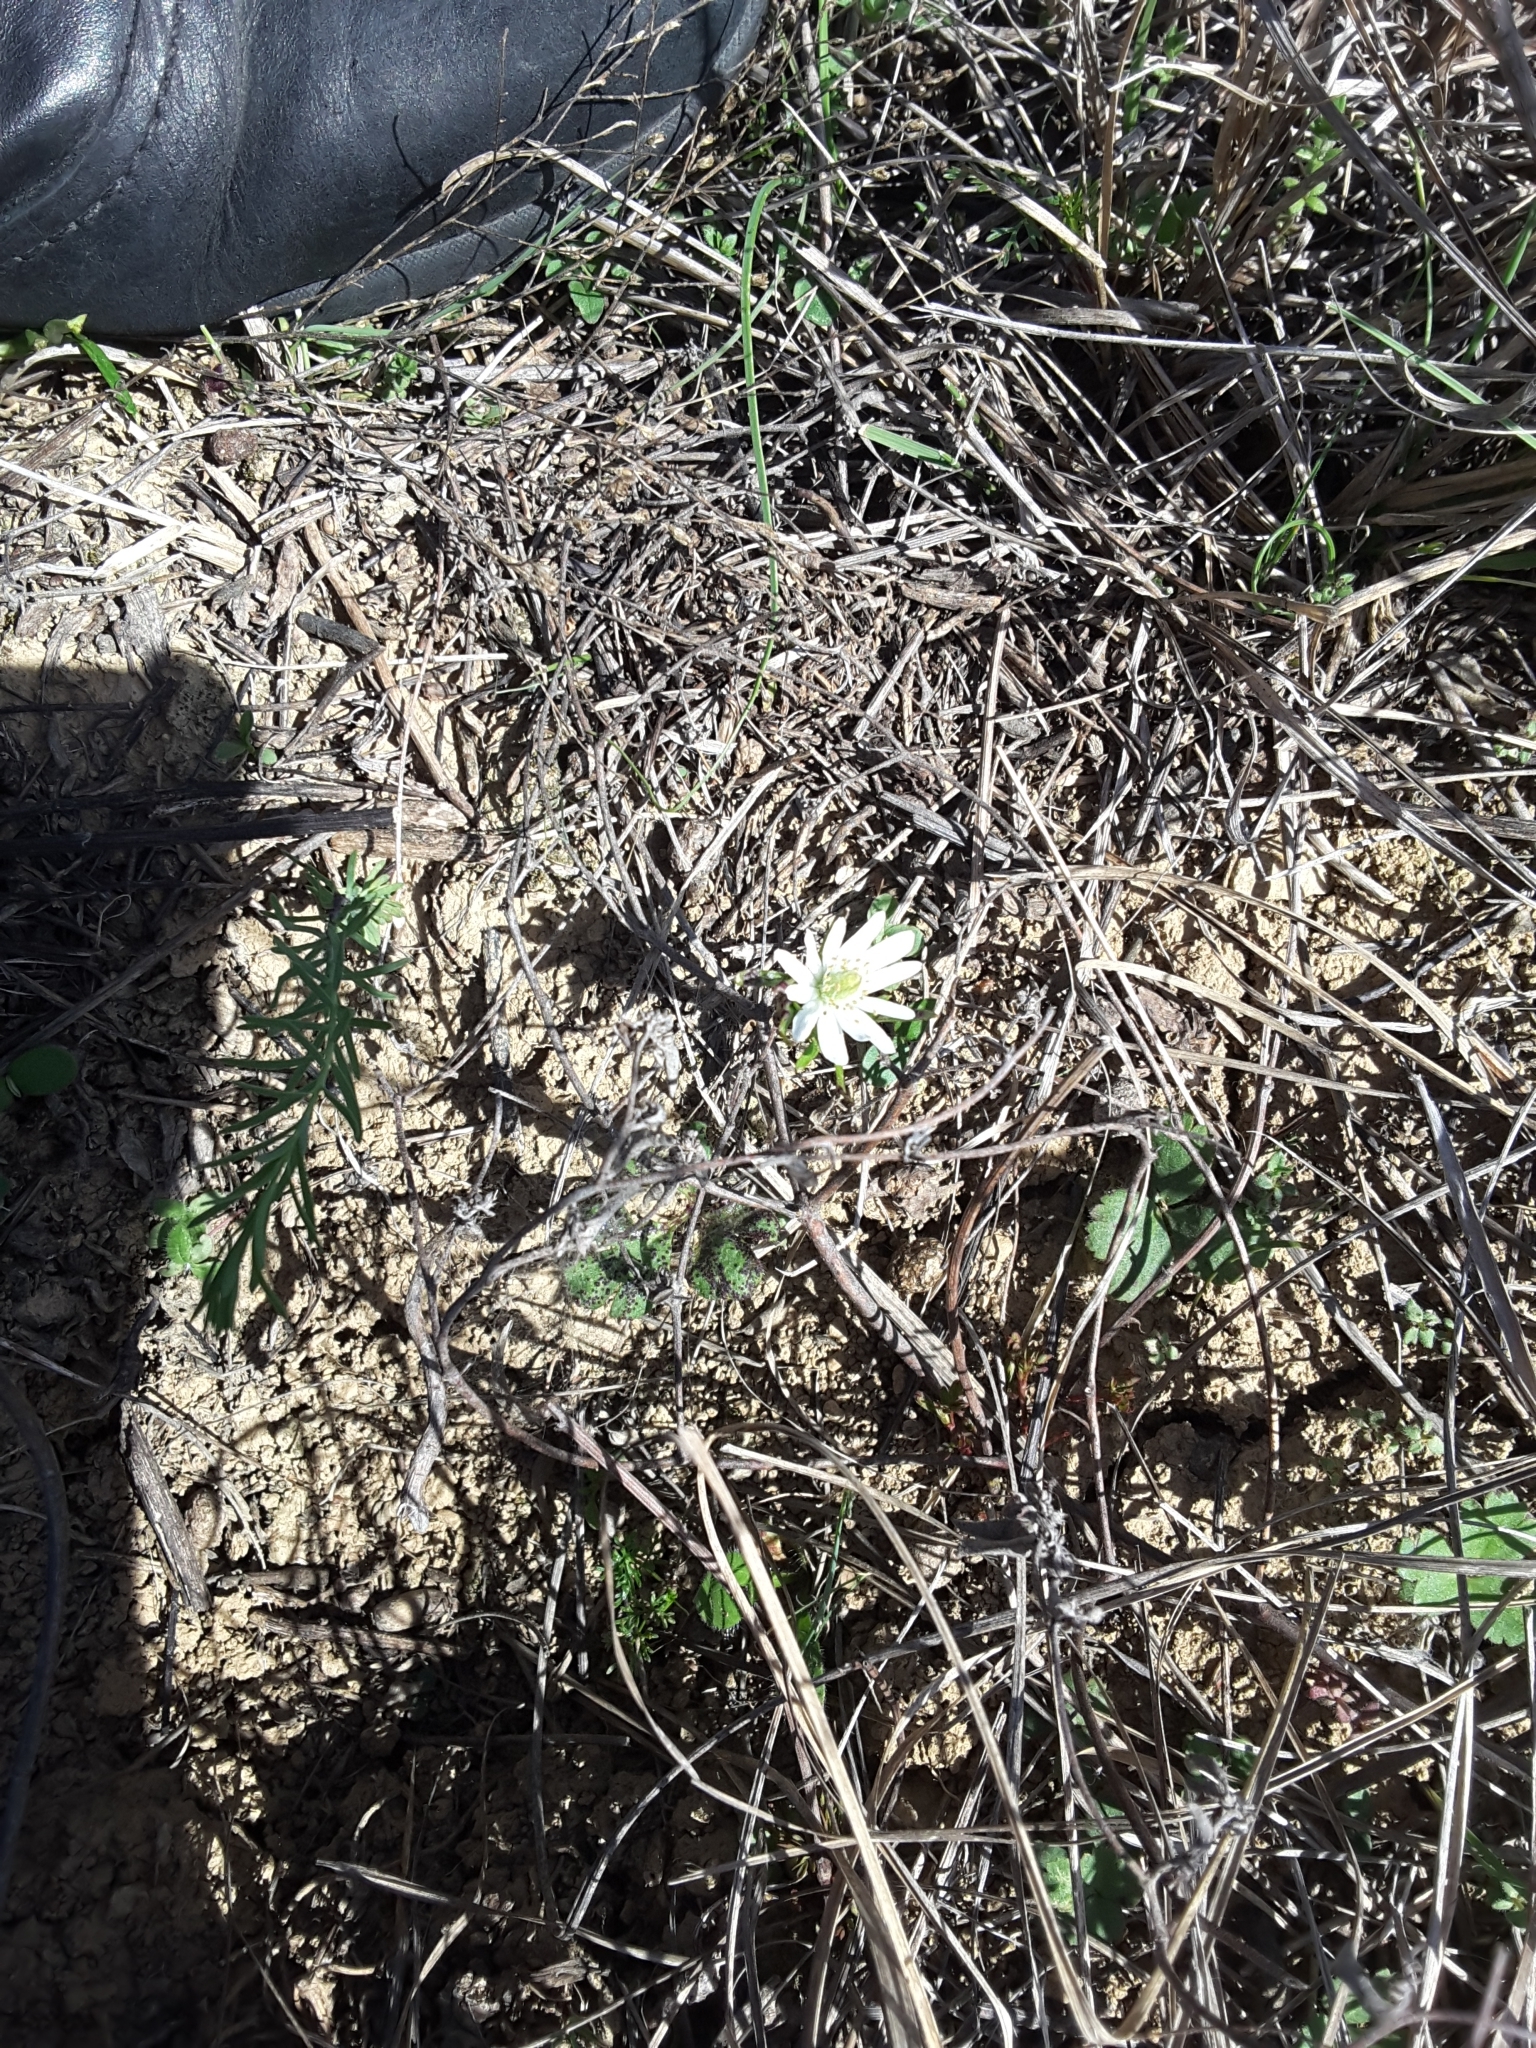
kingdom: Plantae
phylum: Tracheophyta
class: Magnoliopsida
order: Ranunculales
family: Ranunculaceae
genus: Anemone
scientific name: Anemone berlandieri
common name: Ten-petal anemone
